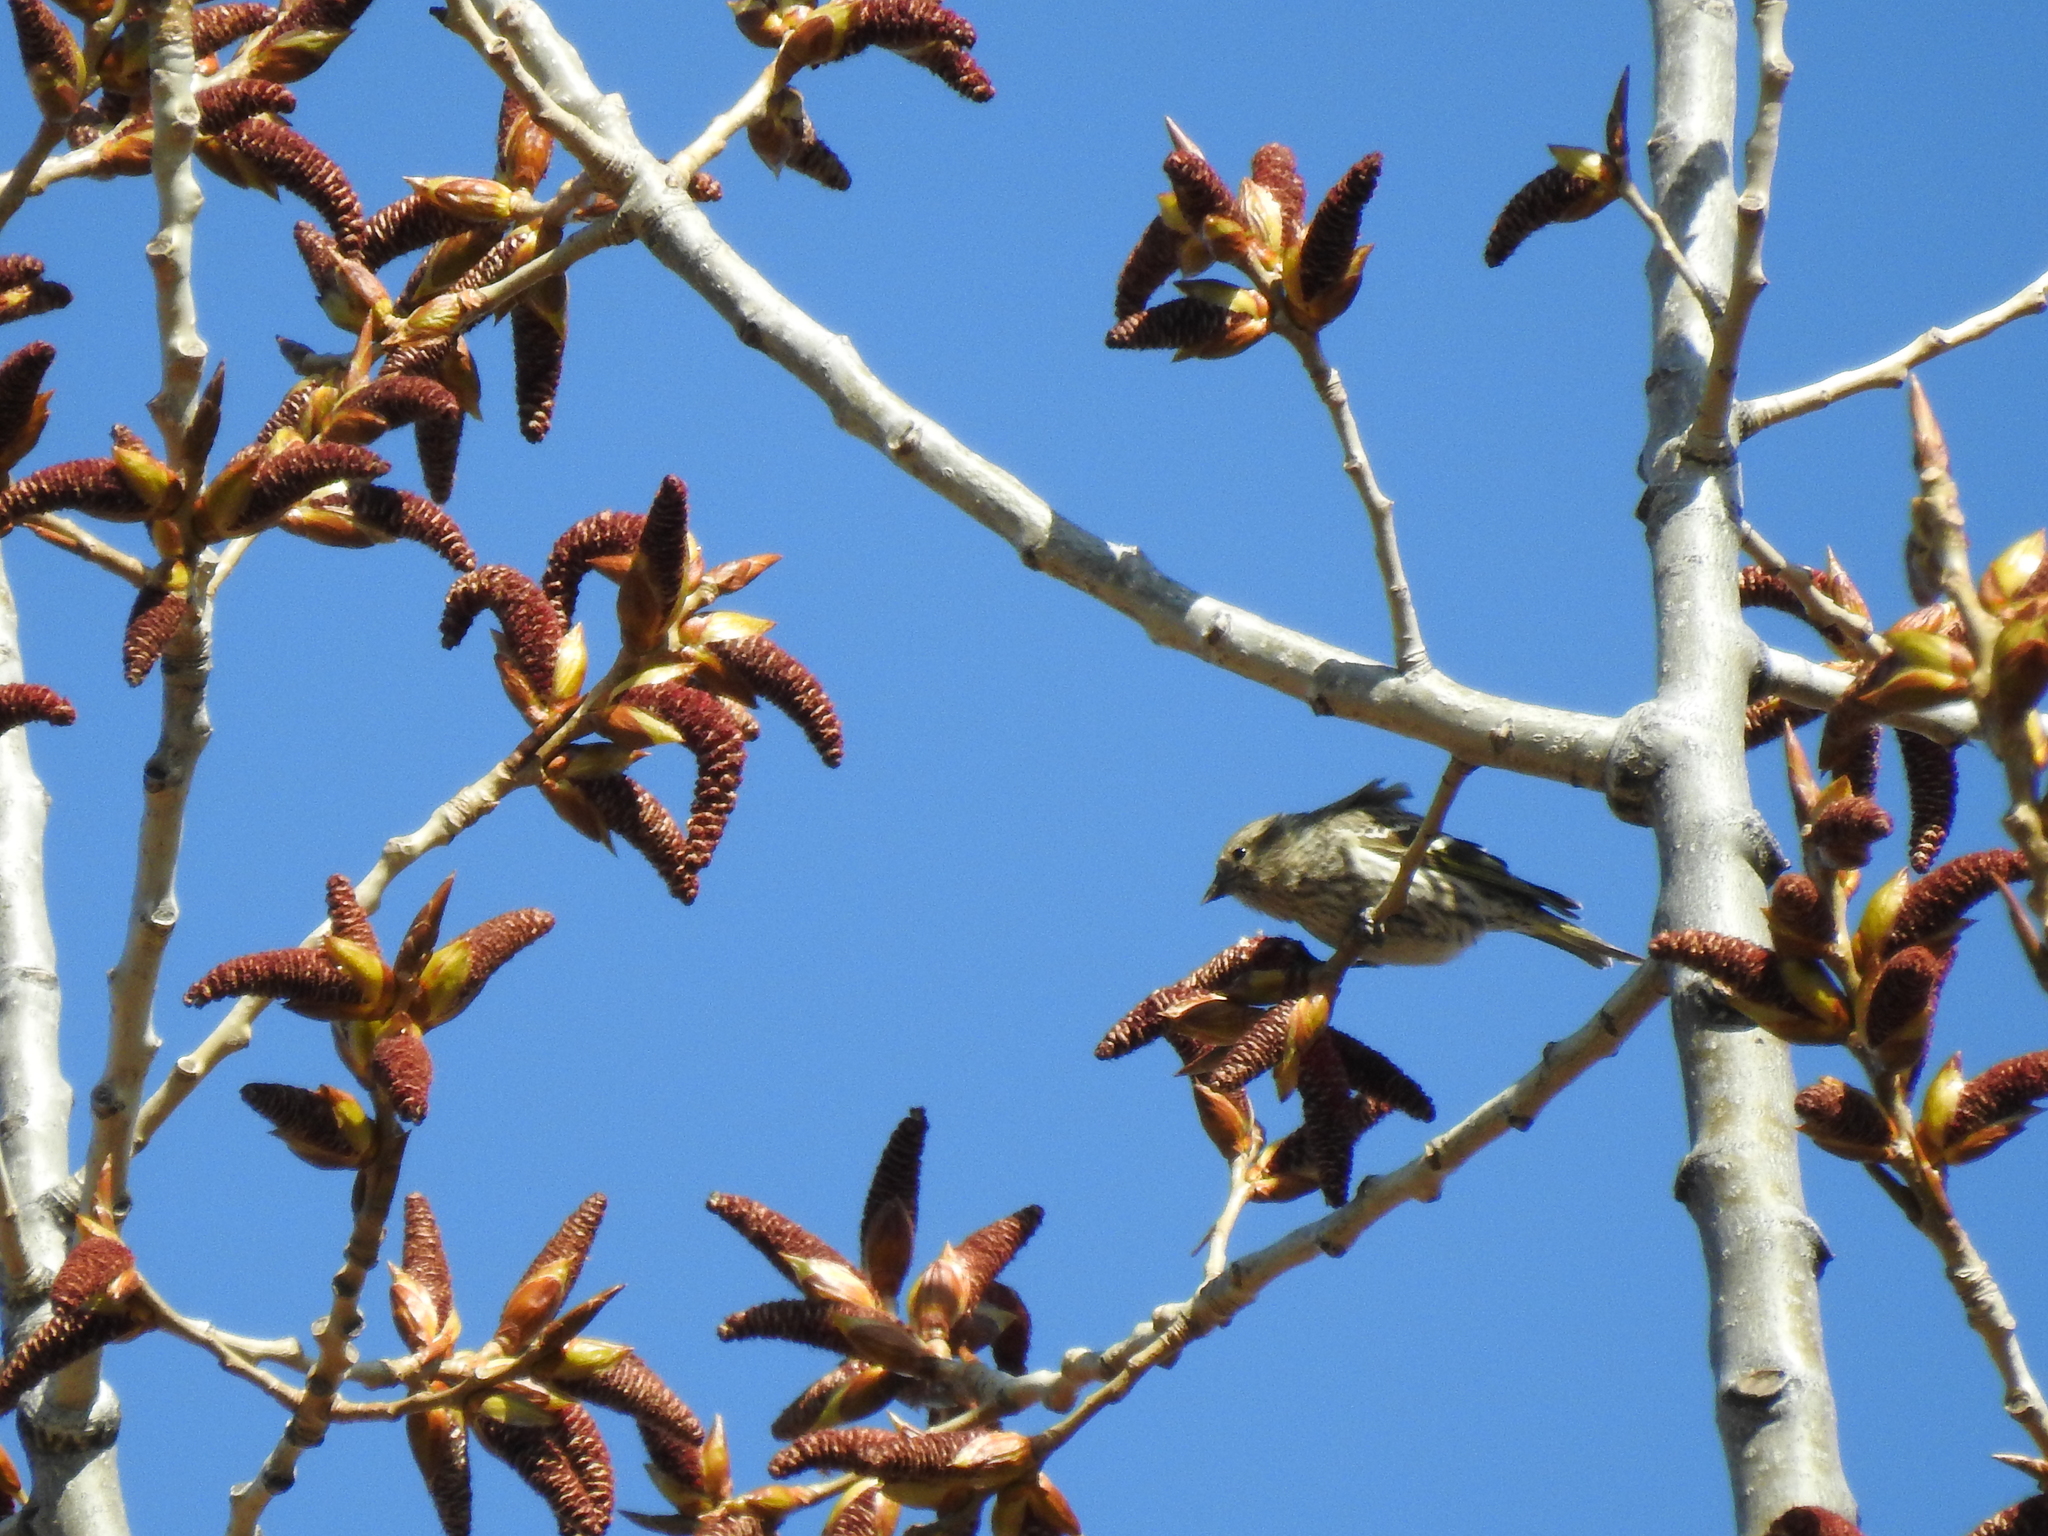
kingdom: Animalia
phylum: Chordata
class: Aves
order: Passeriformes
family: Fringillidae
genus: Spinus
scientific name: Spinus pinus
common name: Pine siskin
